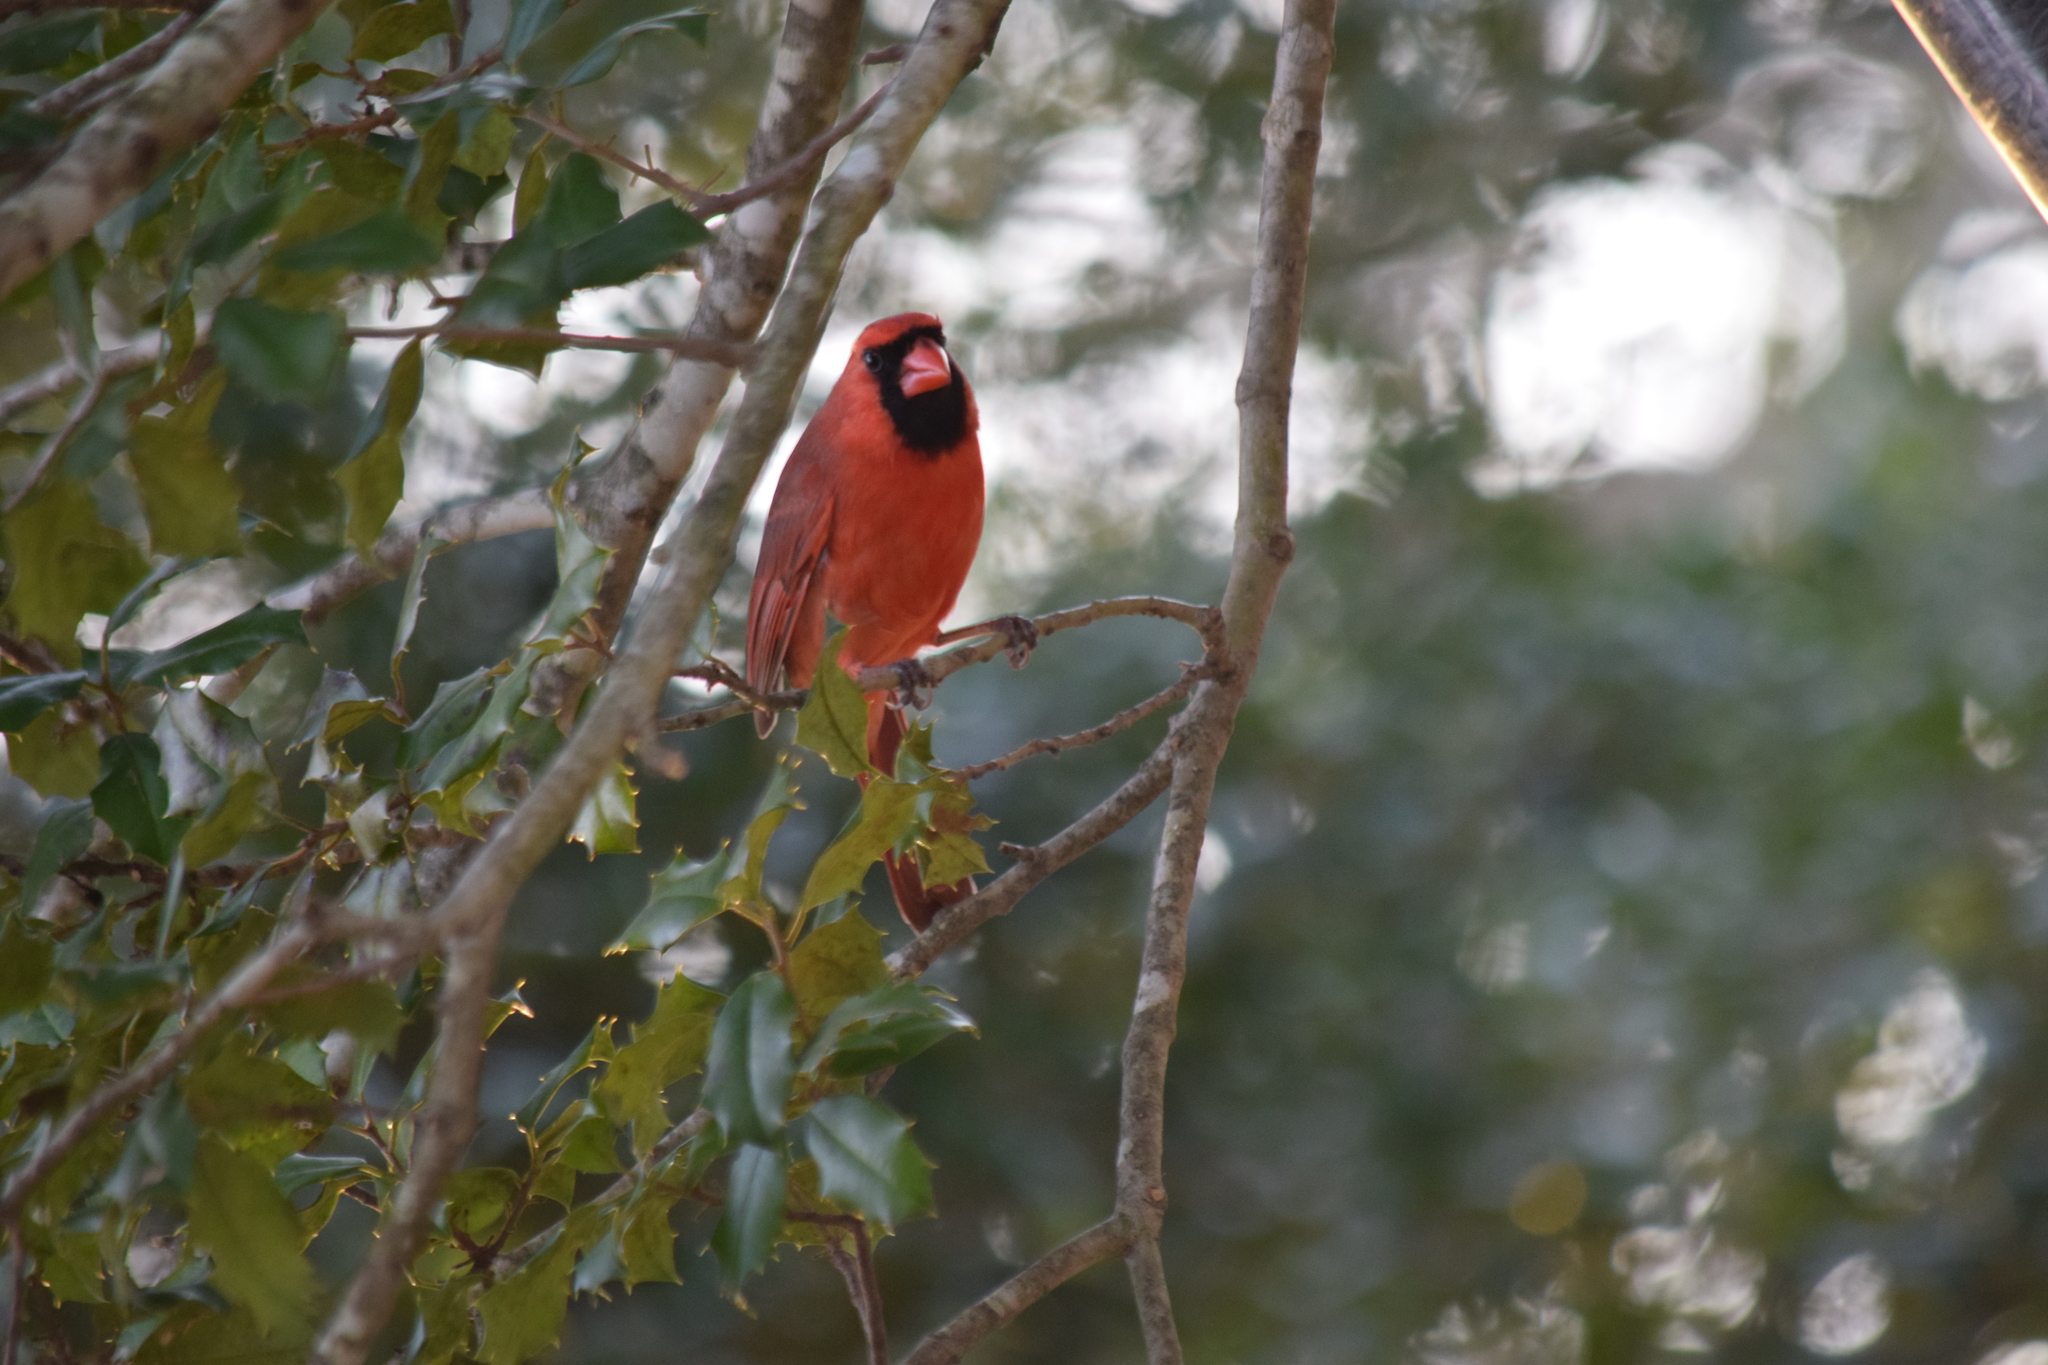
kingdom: Animalia
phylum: Chordata
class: Aves
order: Passeriformes
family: Cardinalidae
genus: Cardinalis
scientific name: Cardinalis cardinalis
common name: Northern cardinal
